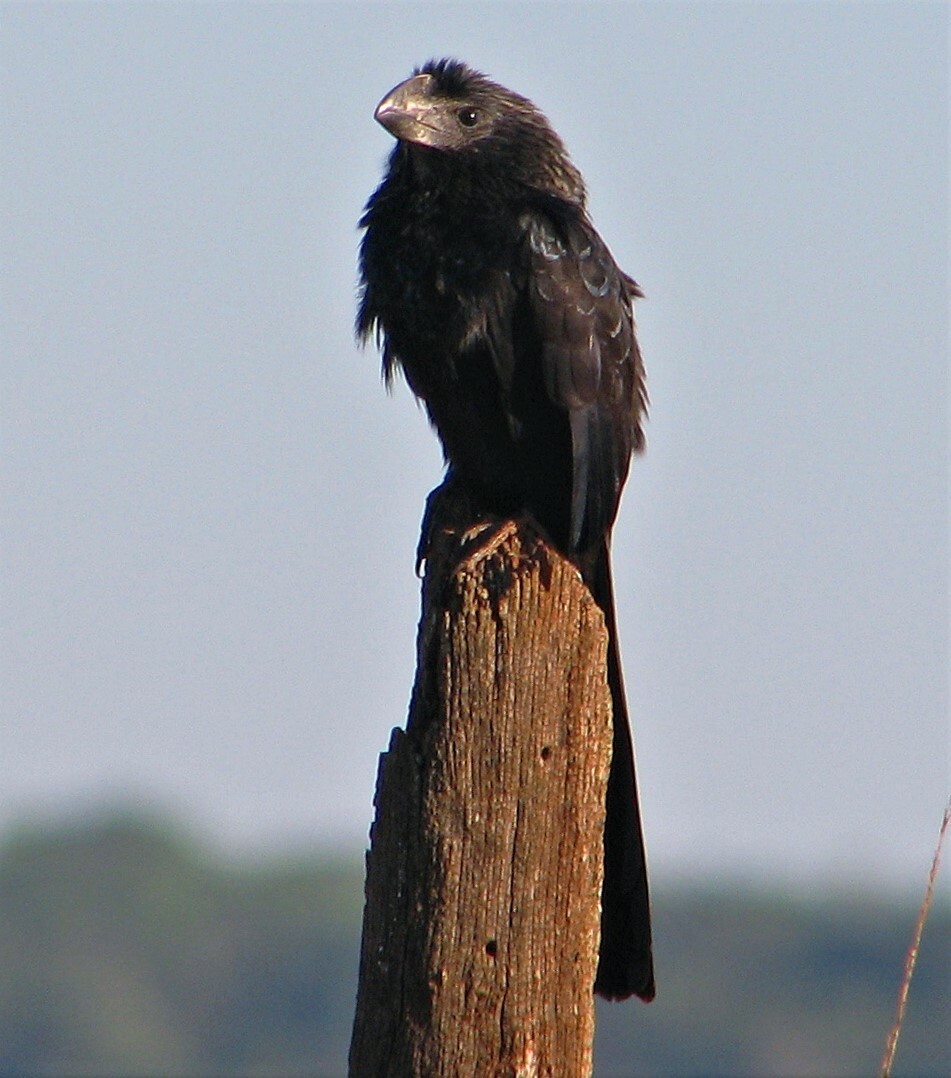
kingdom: Animalia
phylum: Chordata
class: Aves
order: Cuculiformes
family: Cuculidae
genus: Crotophaga
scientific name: Crotophaga ani
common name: Smooth-billed ani
